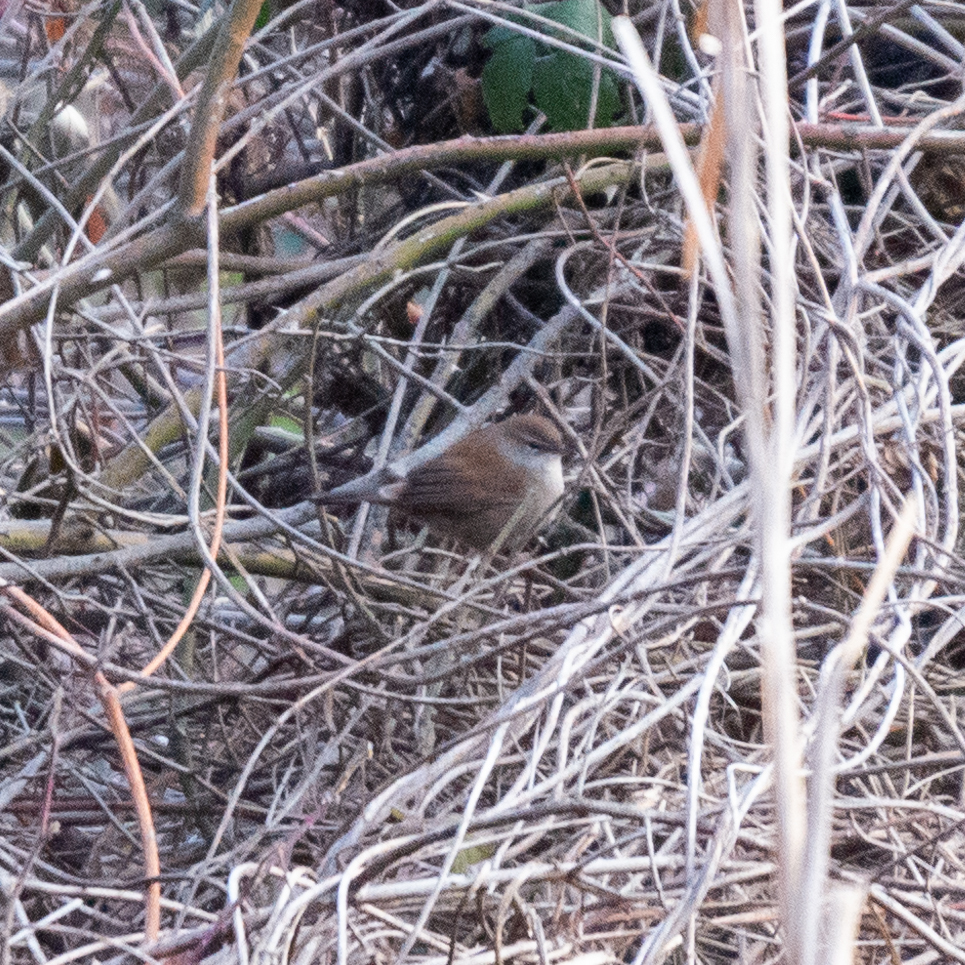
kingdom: Animalia
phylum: Chordata
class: Aves
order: Passeriformes
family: Cettiidae
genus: Cettia
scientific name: Cettia cetti
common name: Cetti's warbler
